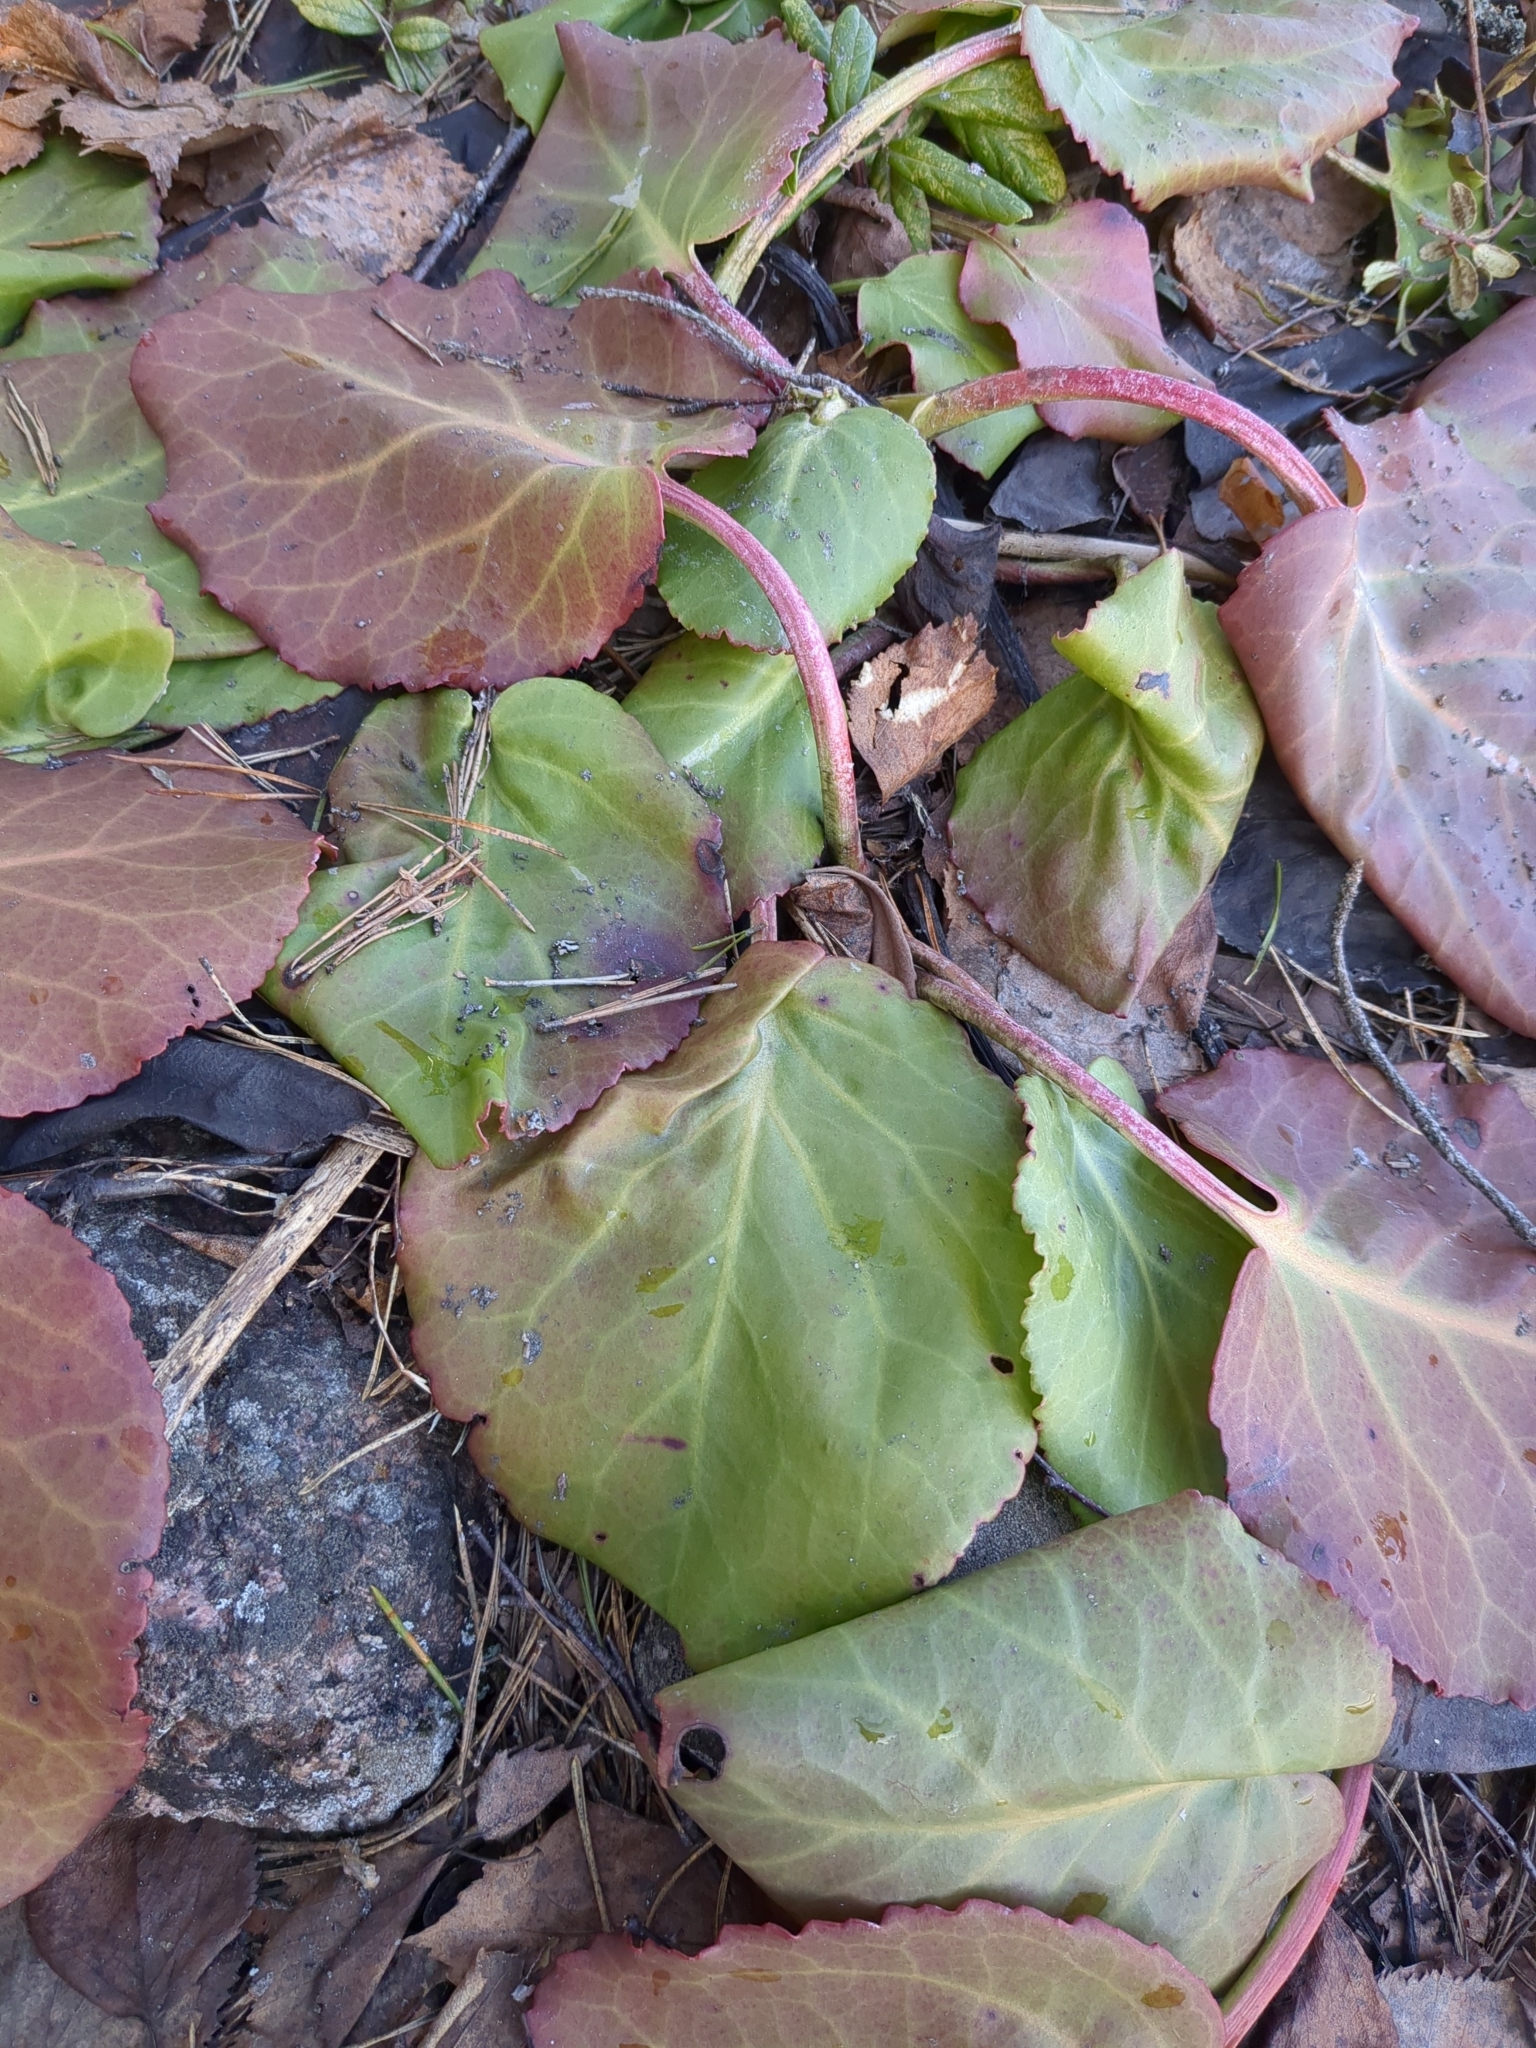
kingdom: Plantae
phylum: Tracheophyta
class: Magnoliopsida
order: Saxifragales
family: Saxifragaceae
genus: Bergenia
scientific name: Bergenia crassifolia
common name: Elephant-ears
